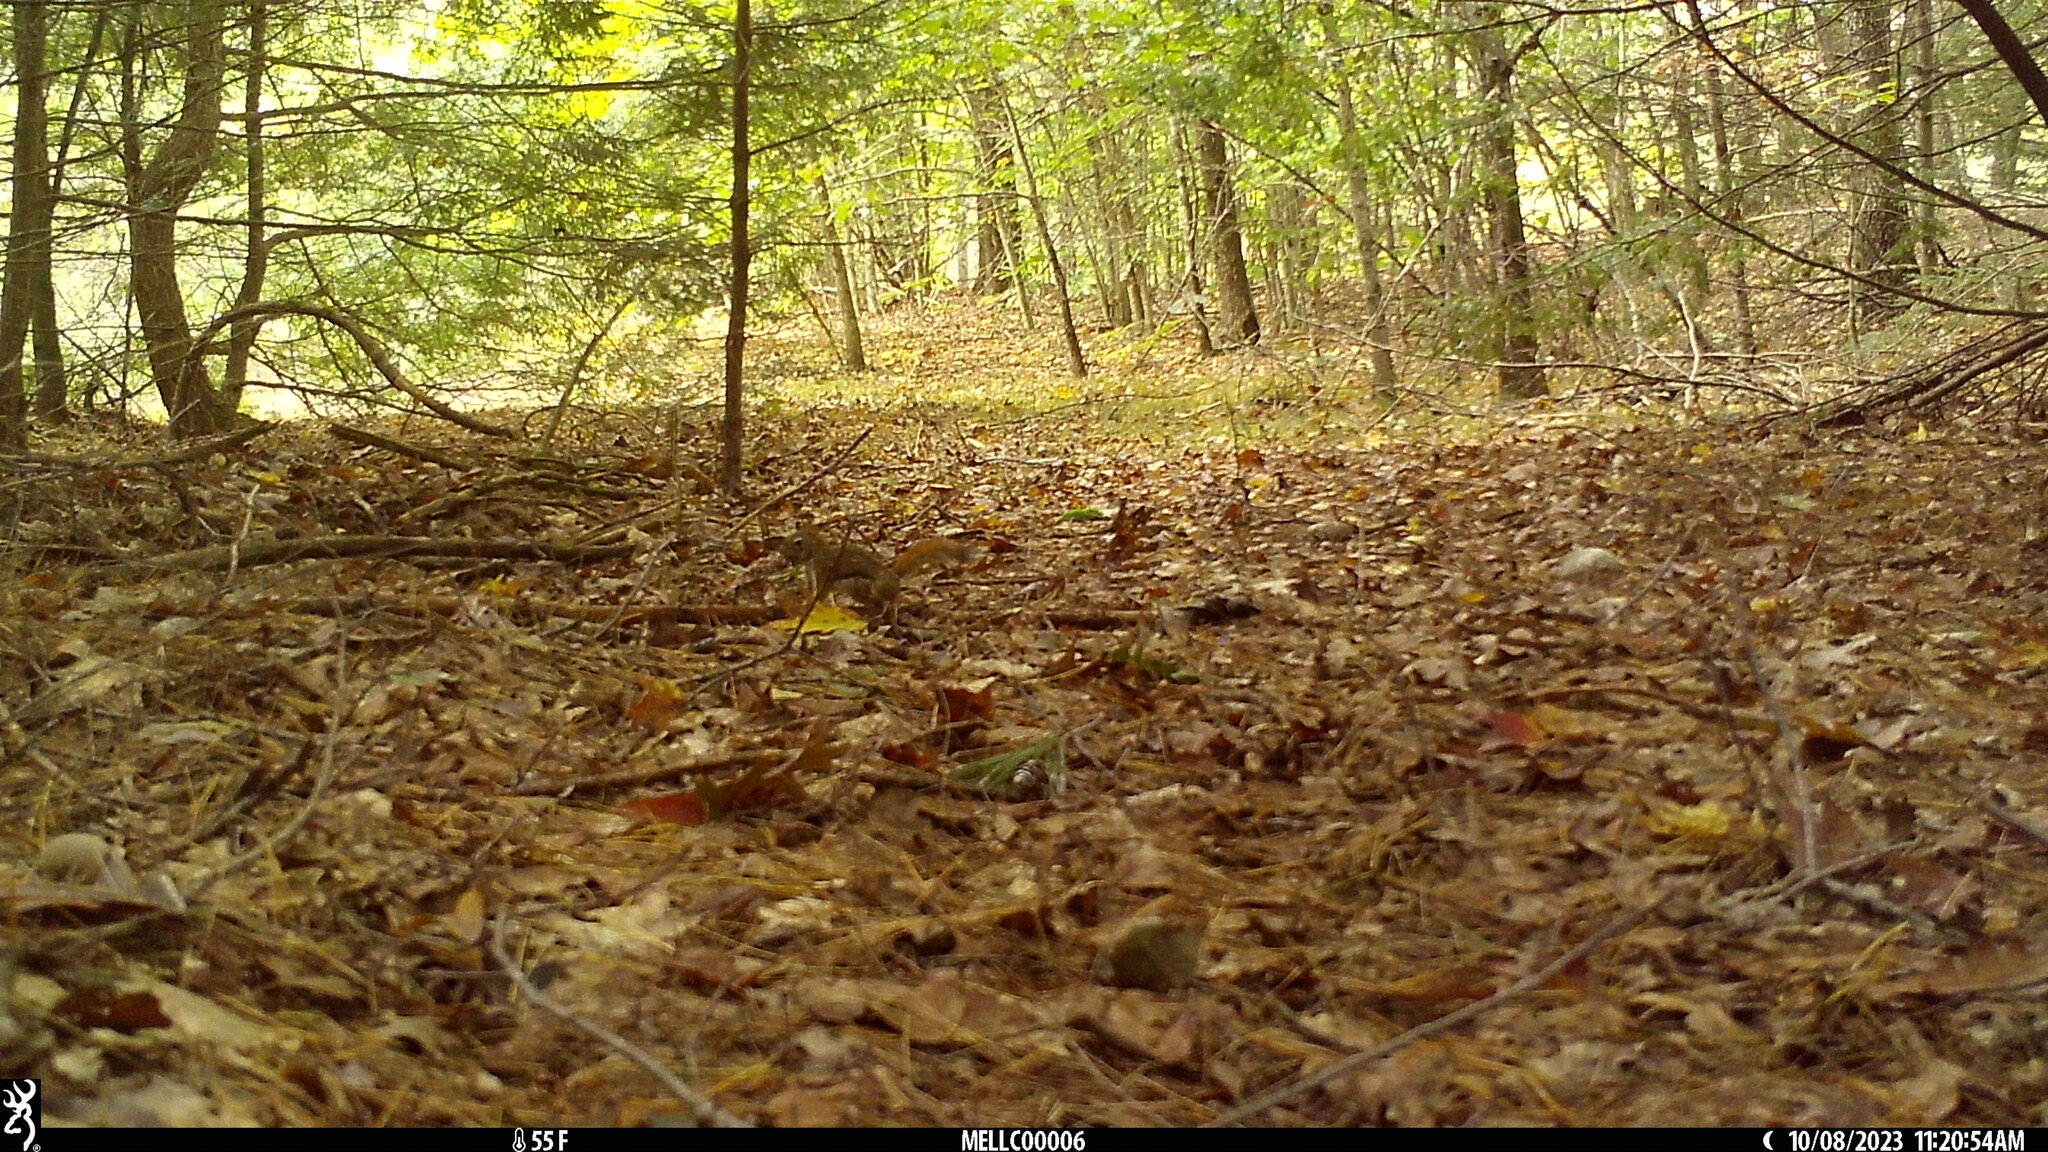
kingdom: Animalia
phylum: Chordata
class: Mammalia
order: Rodentia
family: Sciuridae
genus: Tamiasciurus
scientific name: Tamiasciurus hudsonicus
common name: Red squirrel
